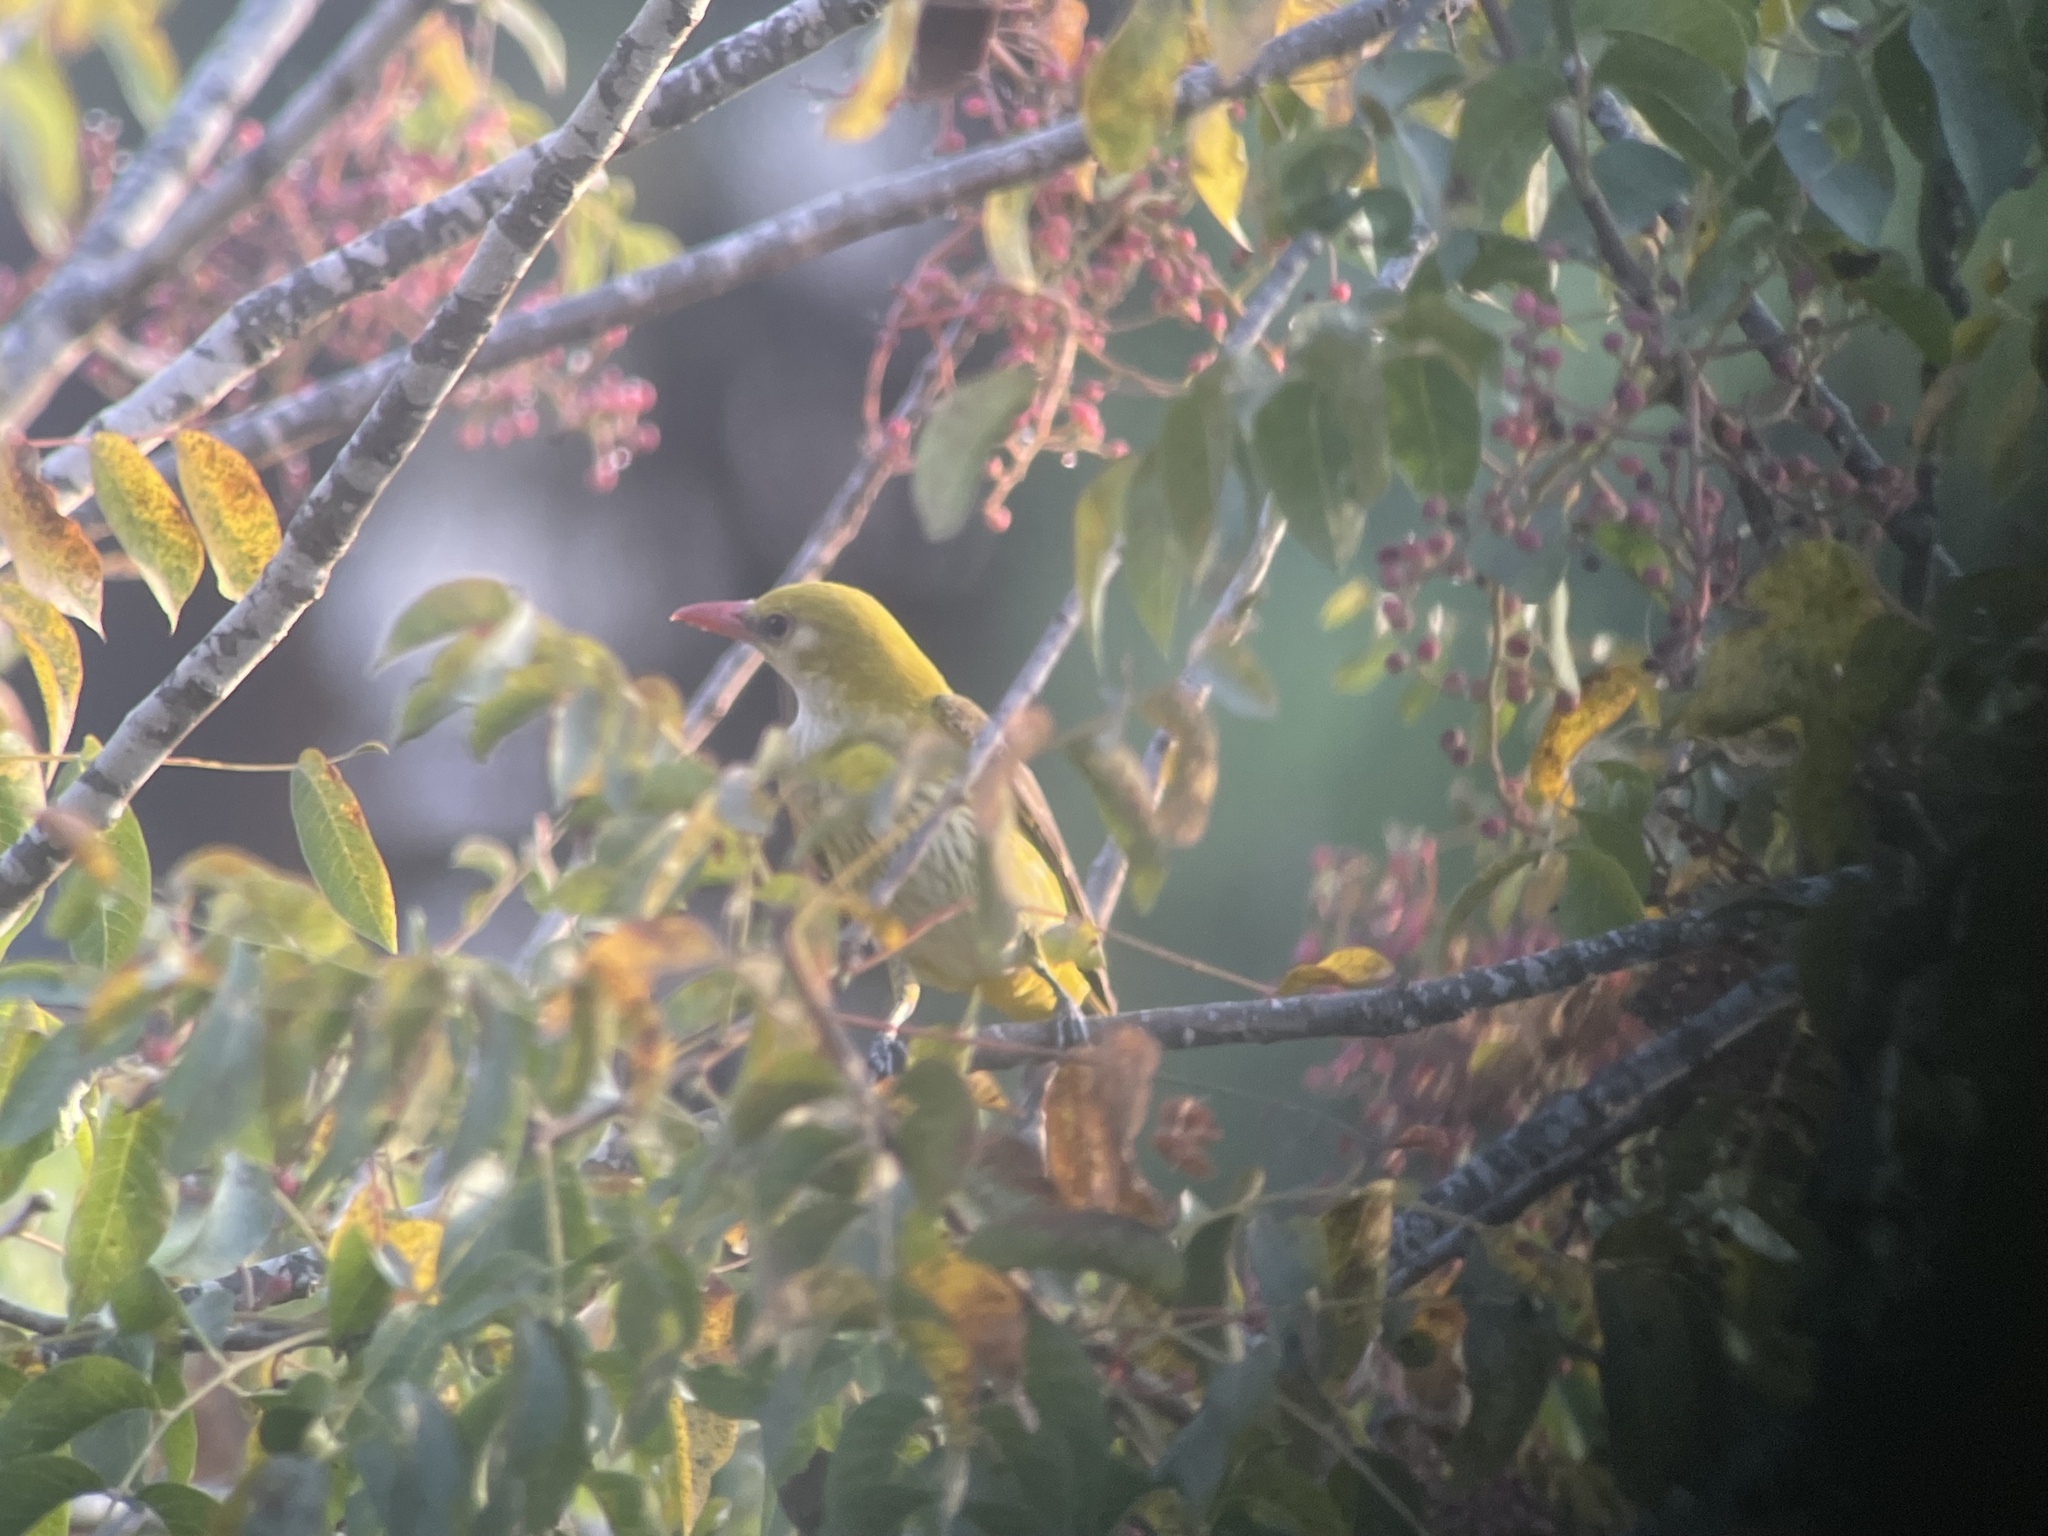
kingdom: Animalia
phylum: Chordata
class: Aves
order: Passeriformes
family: Oriolidae
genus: Oriolus
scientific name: Oriolus oriolus
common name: Eurasian golden oriole
